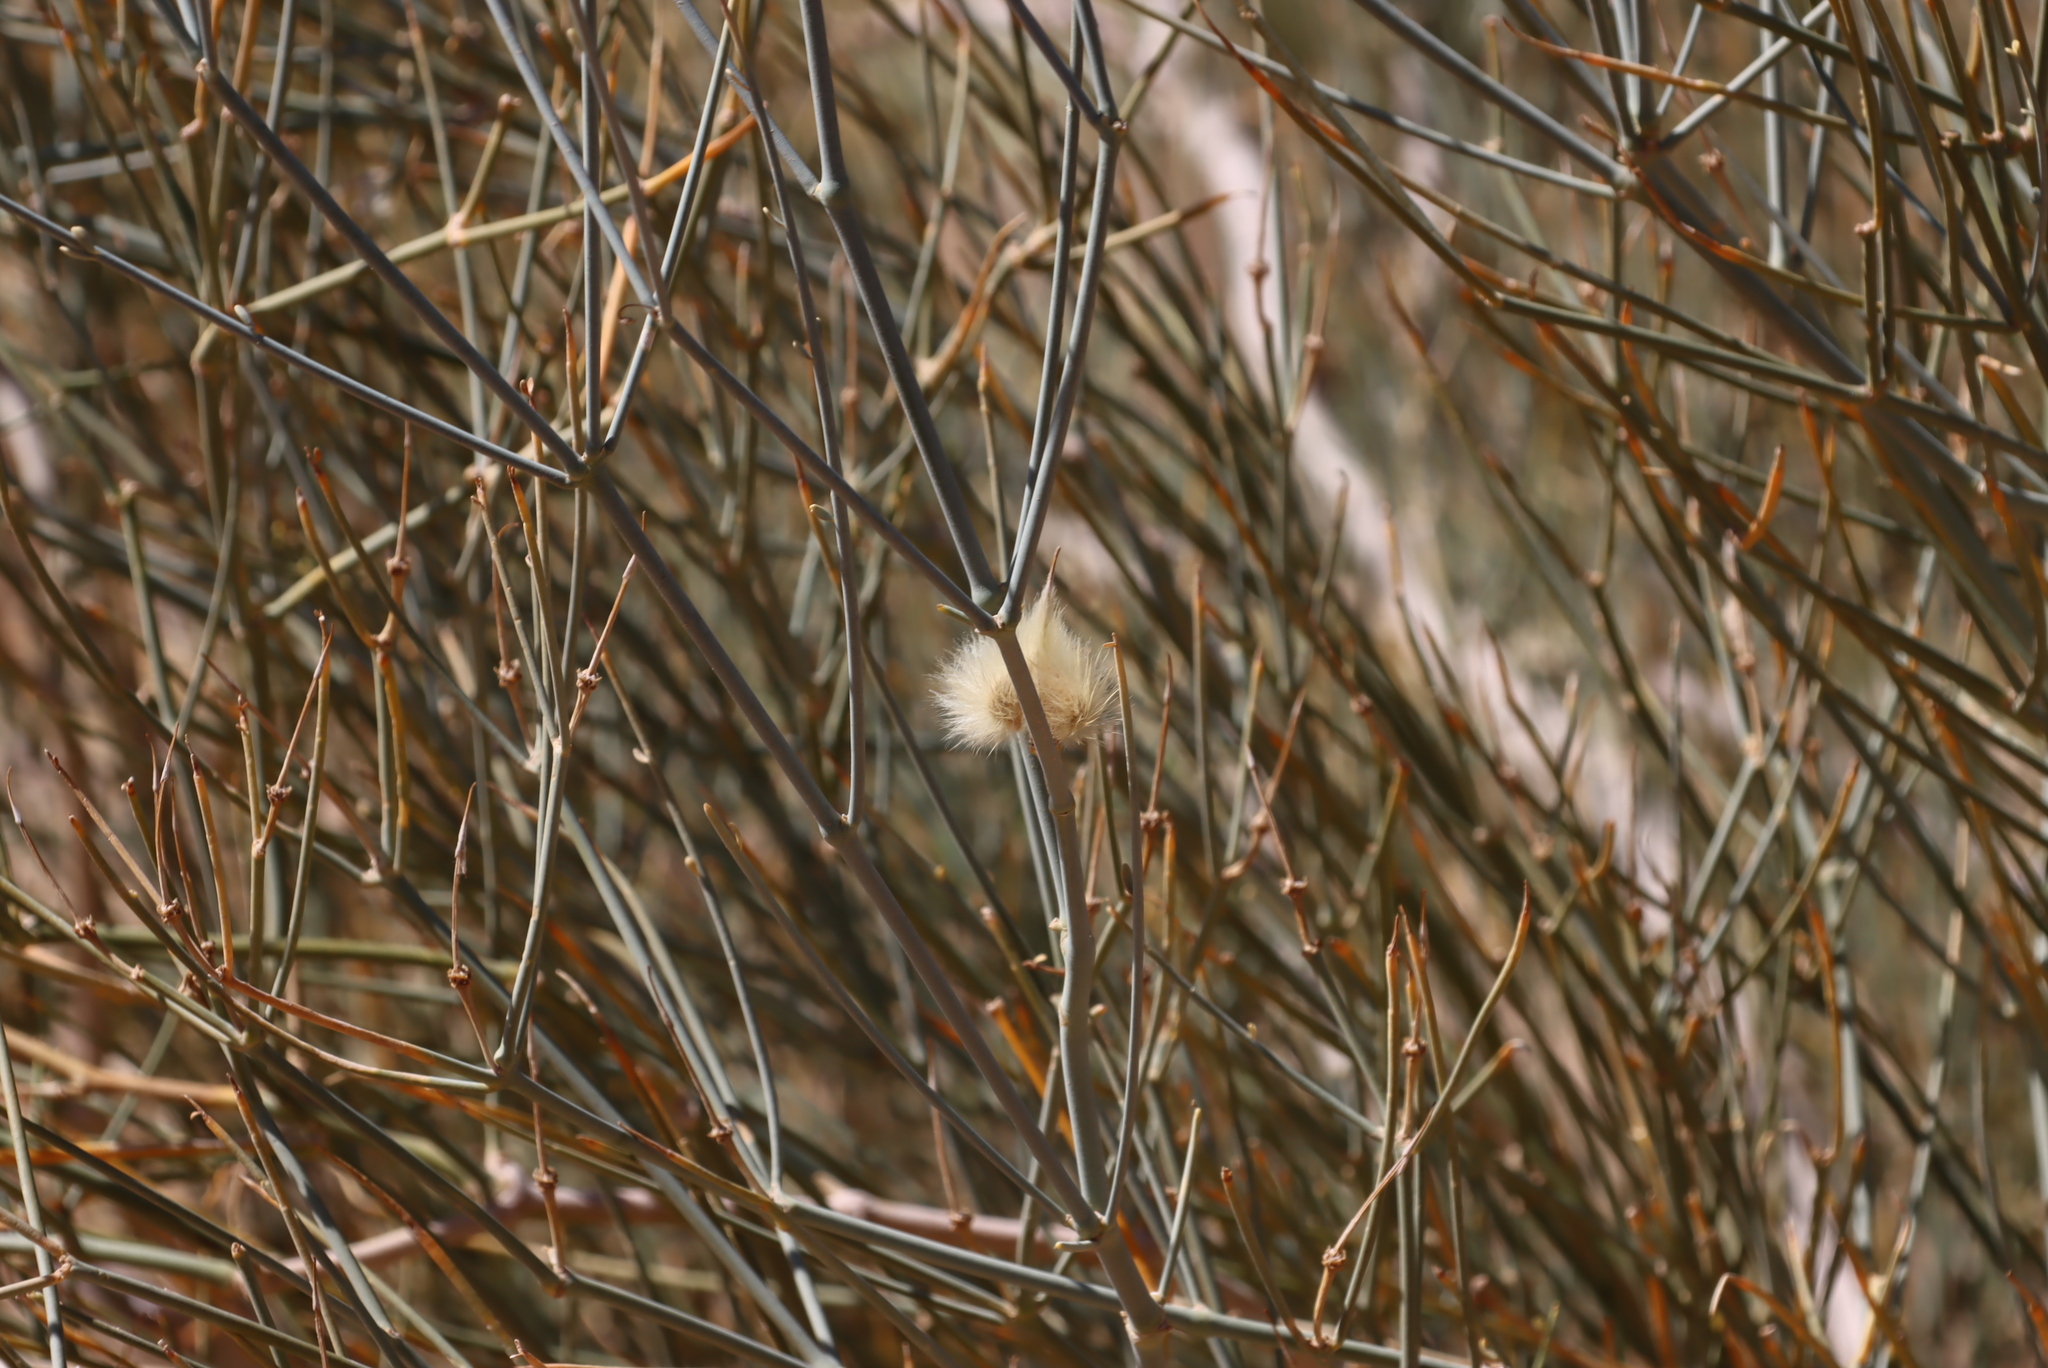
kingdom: Plantae
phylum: Tracheophyta
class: Magnoliopsida
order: Zygophyllales
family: Zygophyllaceae
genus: Sisyndite
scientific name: Sisyndite spartea
